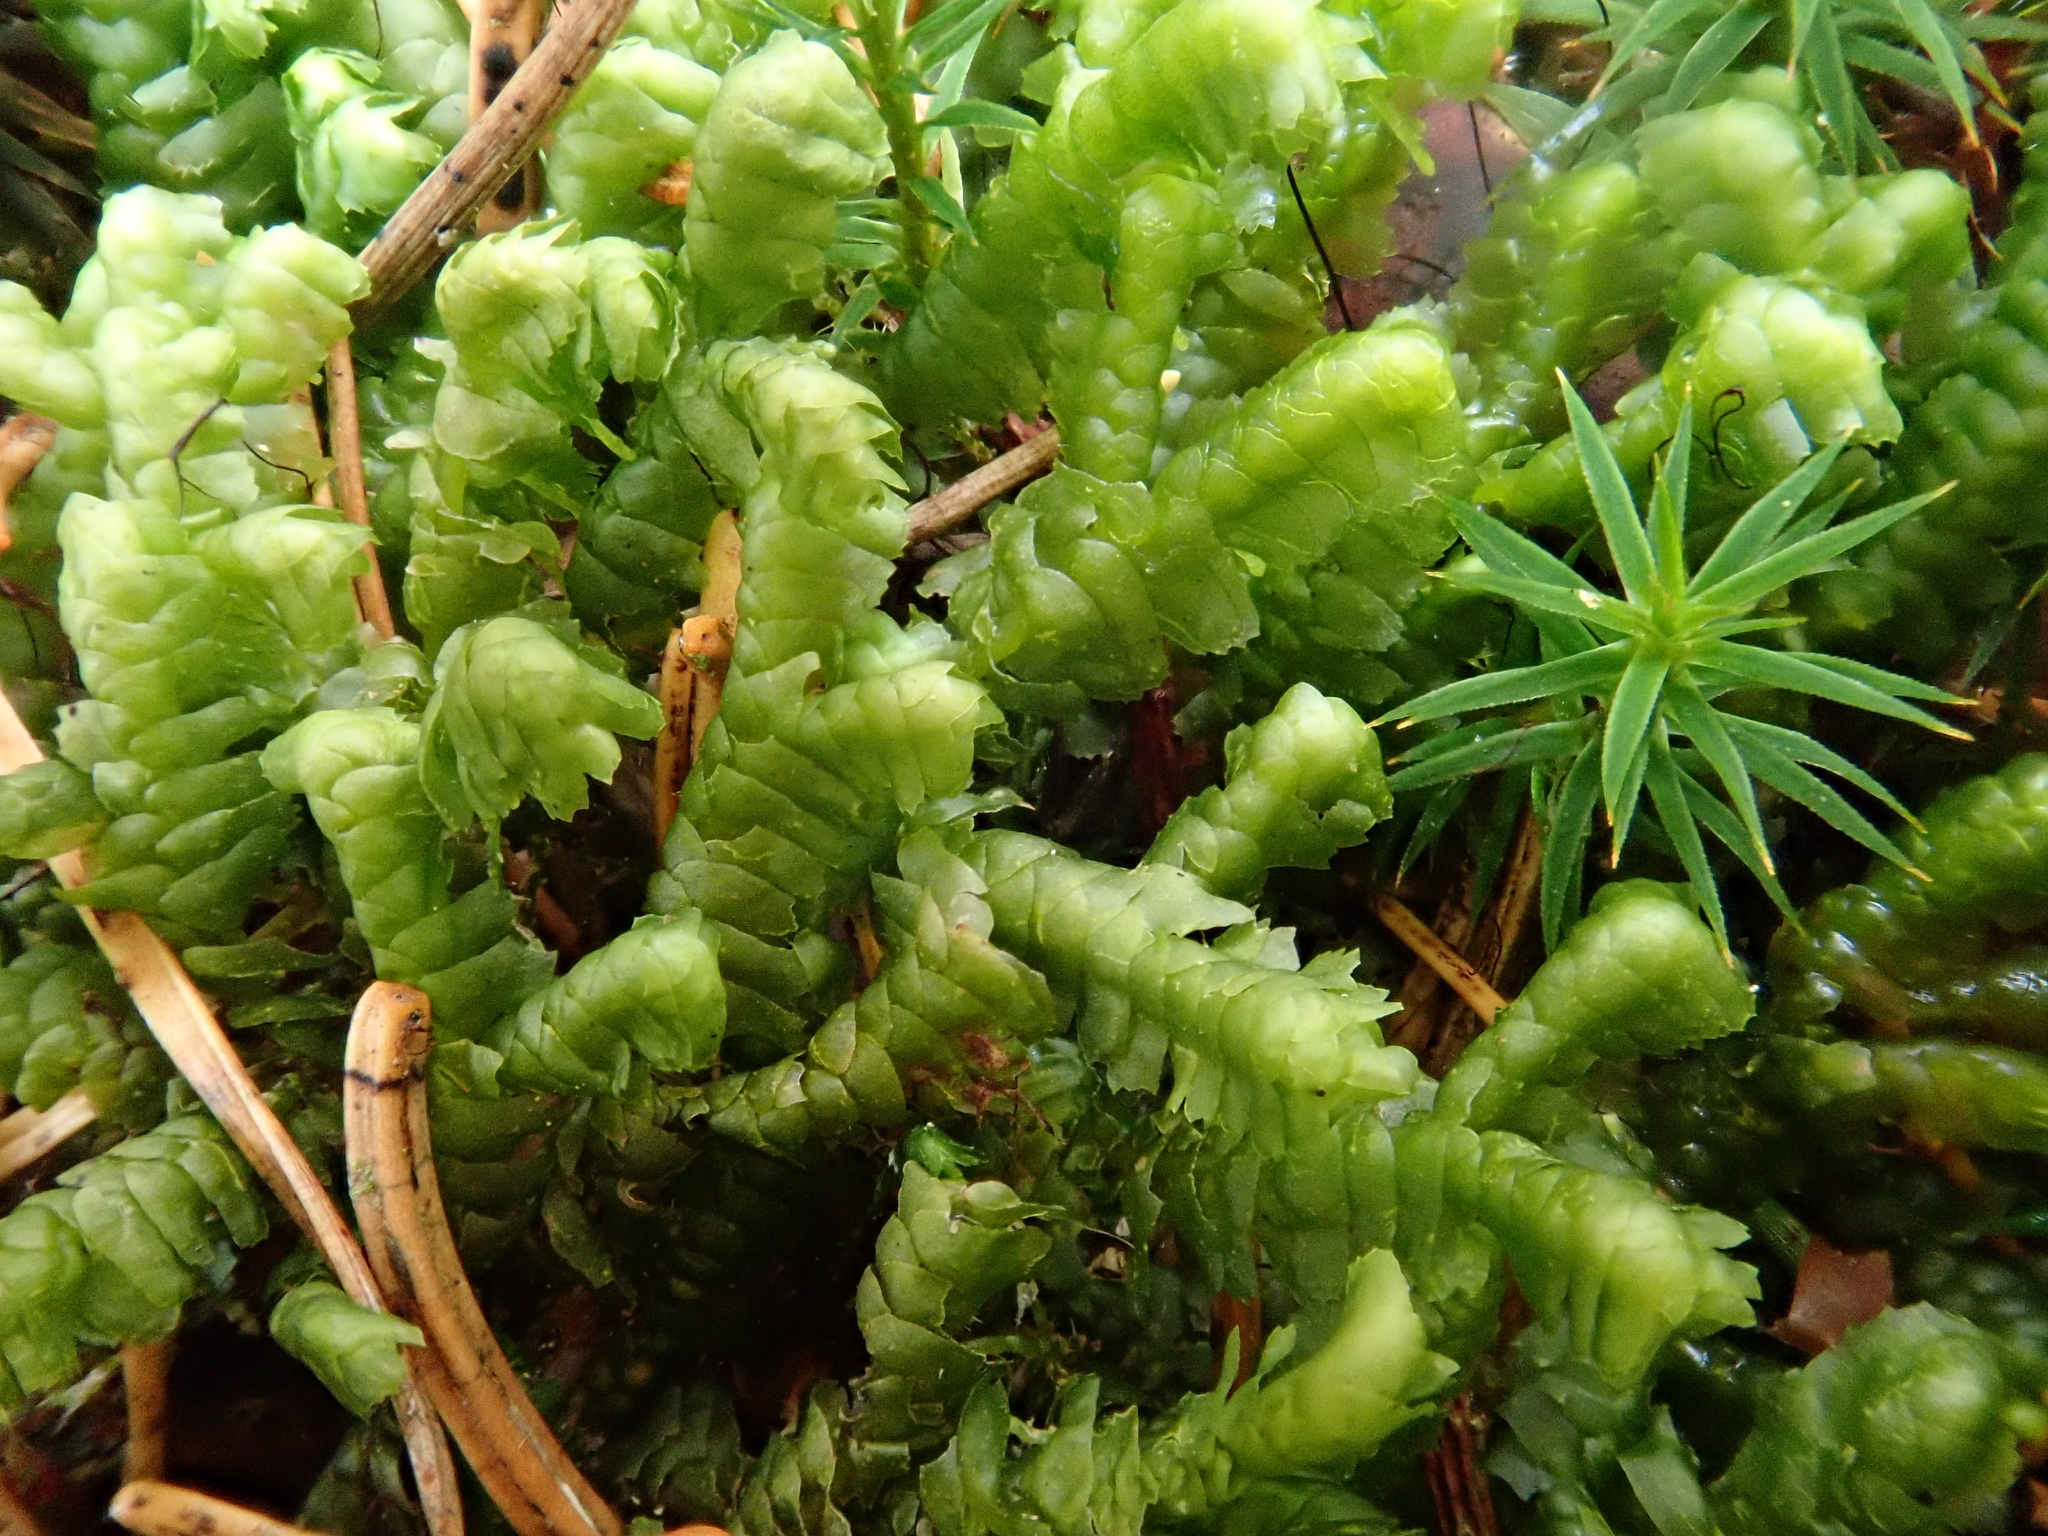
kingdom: Plantae
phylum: Marchantiophyta
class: Jungermanniopsida
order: Jungermanniales
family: Lepidoziaceae
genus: Bazzania
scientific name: Bazzania trilobata
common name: Three-lobed whipwort
